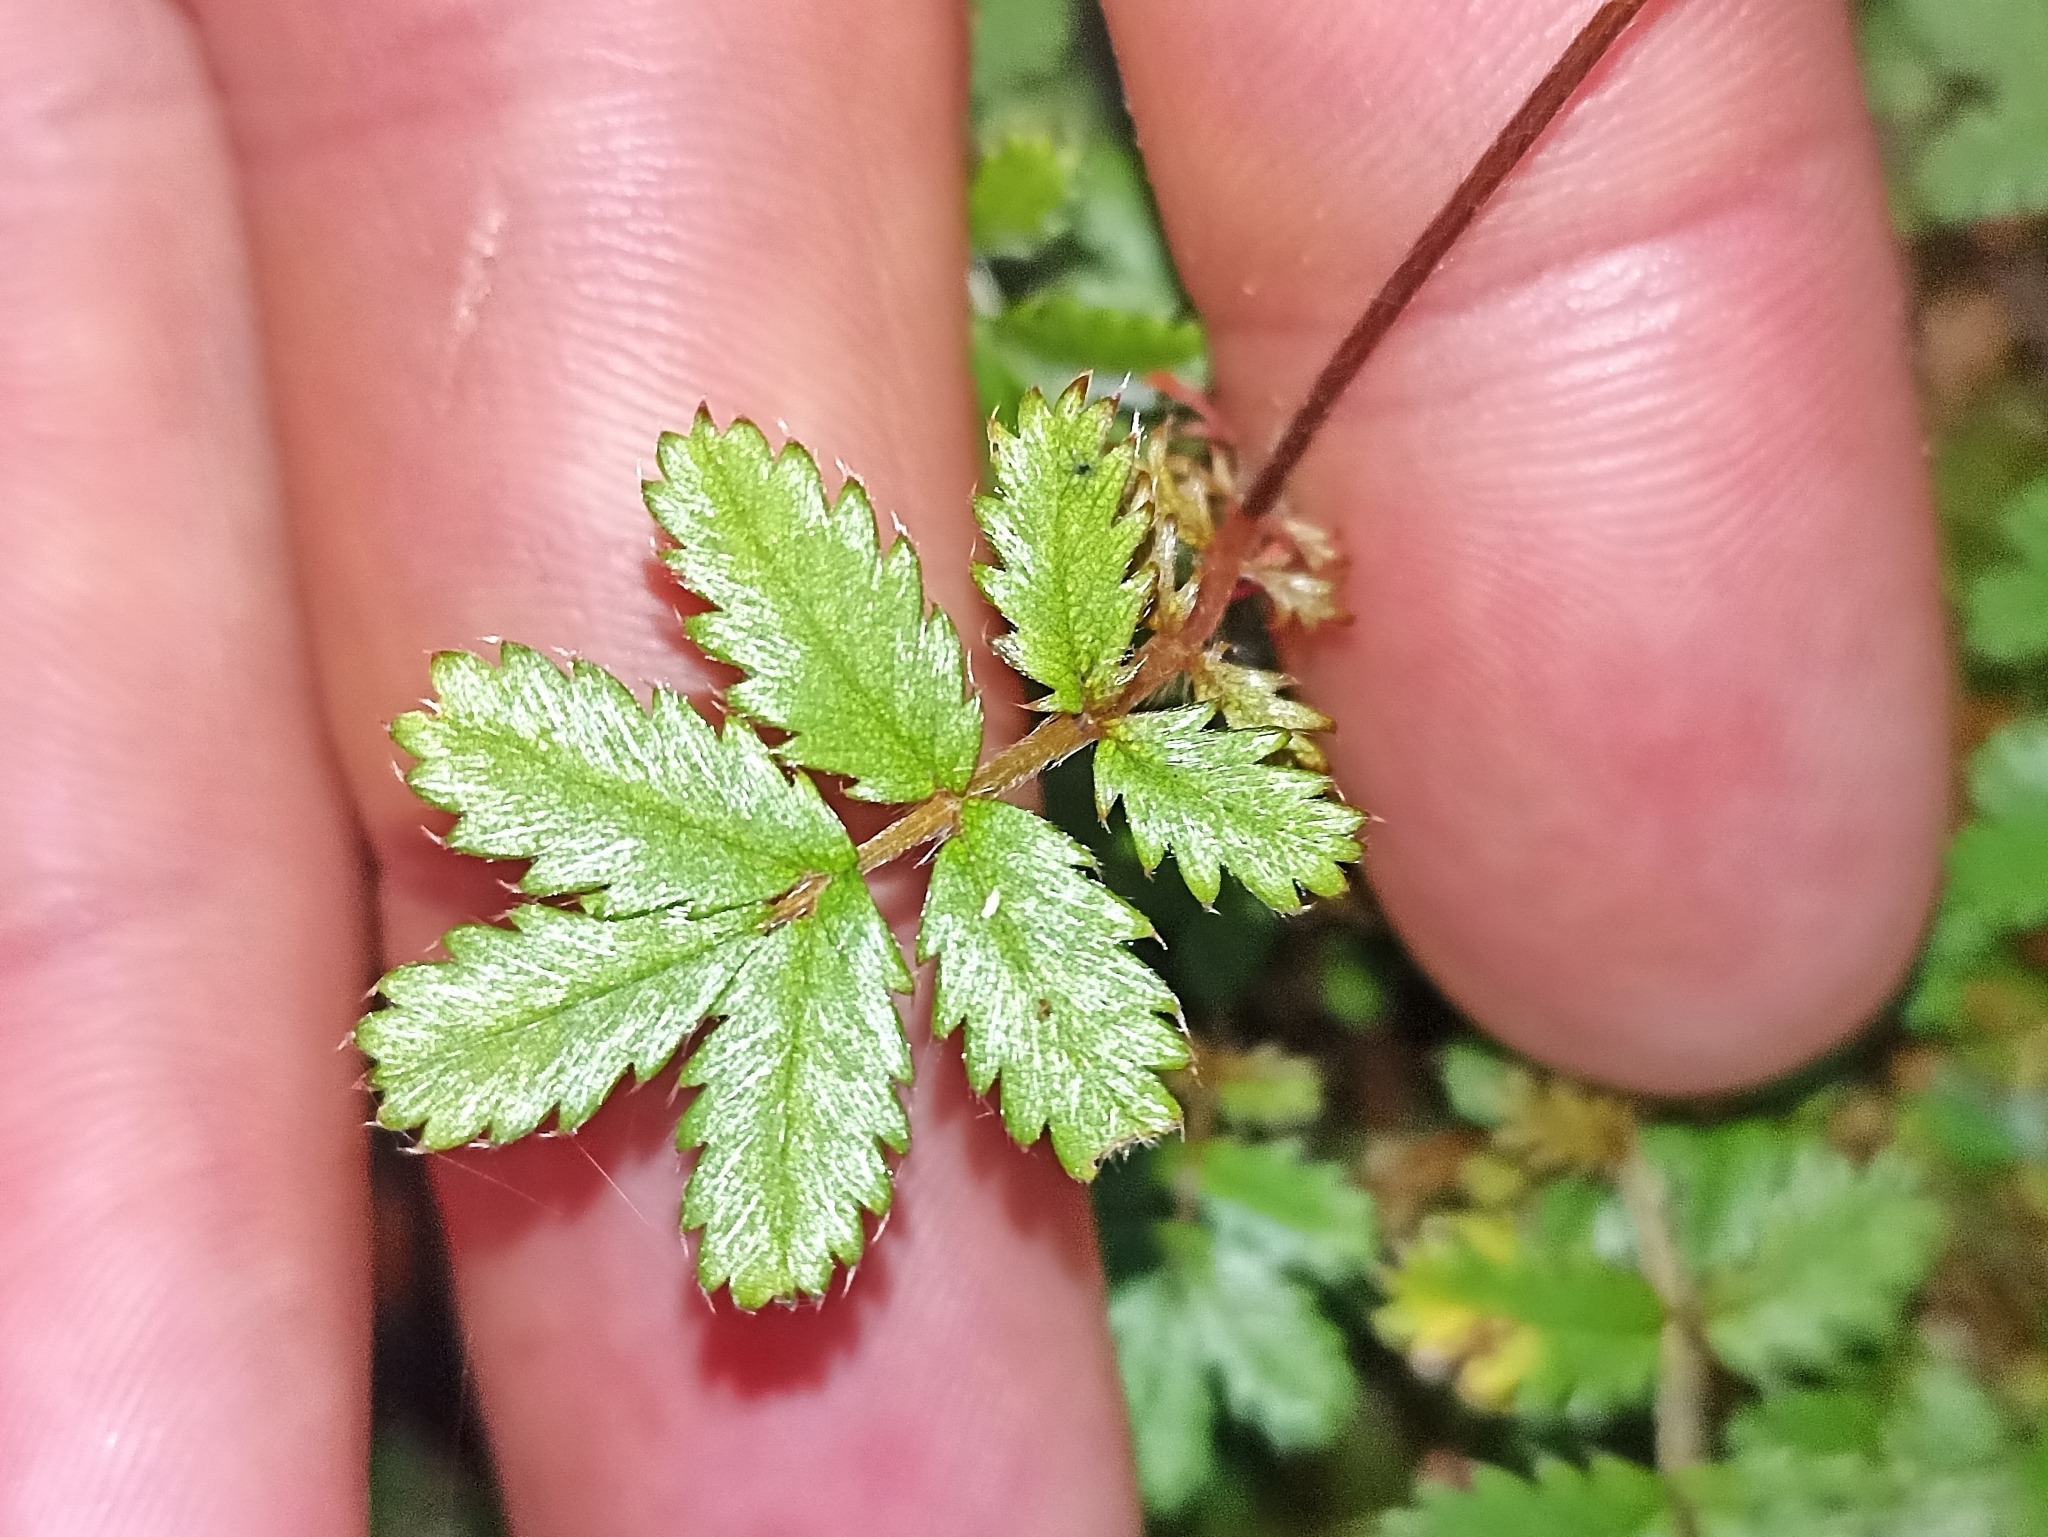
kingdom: Plantae
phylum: Tracheophyta
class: Magnoliopsida
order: Rosales
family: Rosaceae
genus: Acaena
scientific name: Acaena anserinifolia
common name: Bronze pirri-pirri-bur
